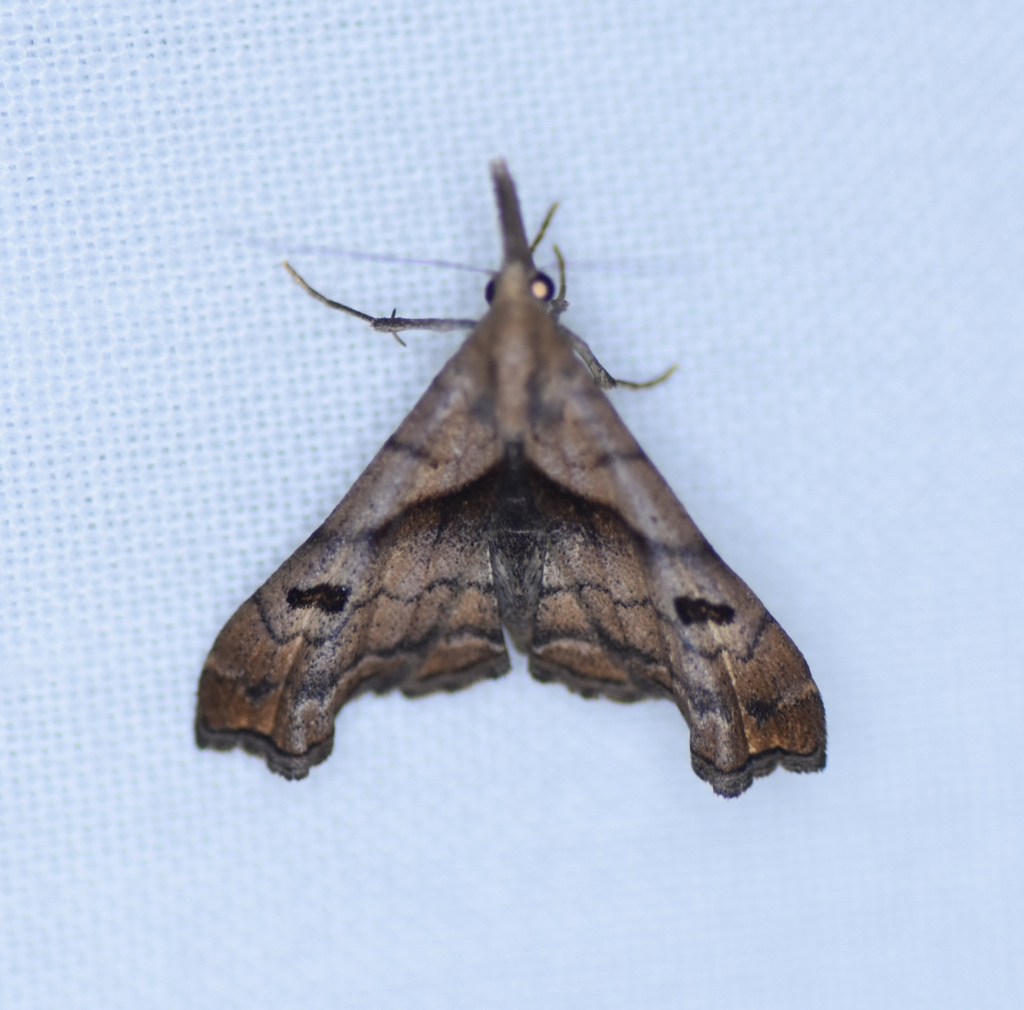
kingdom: Animalia
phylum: Arthropoda
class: Insecta
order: Lepidoptera
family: Erebidae
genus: Palthis
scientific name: Palthis angulalis
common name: Dark-spotted palthis moth
